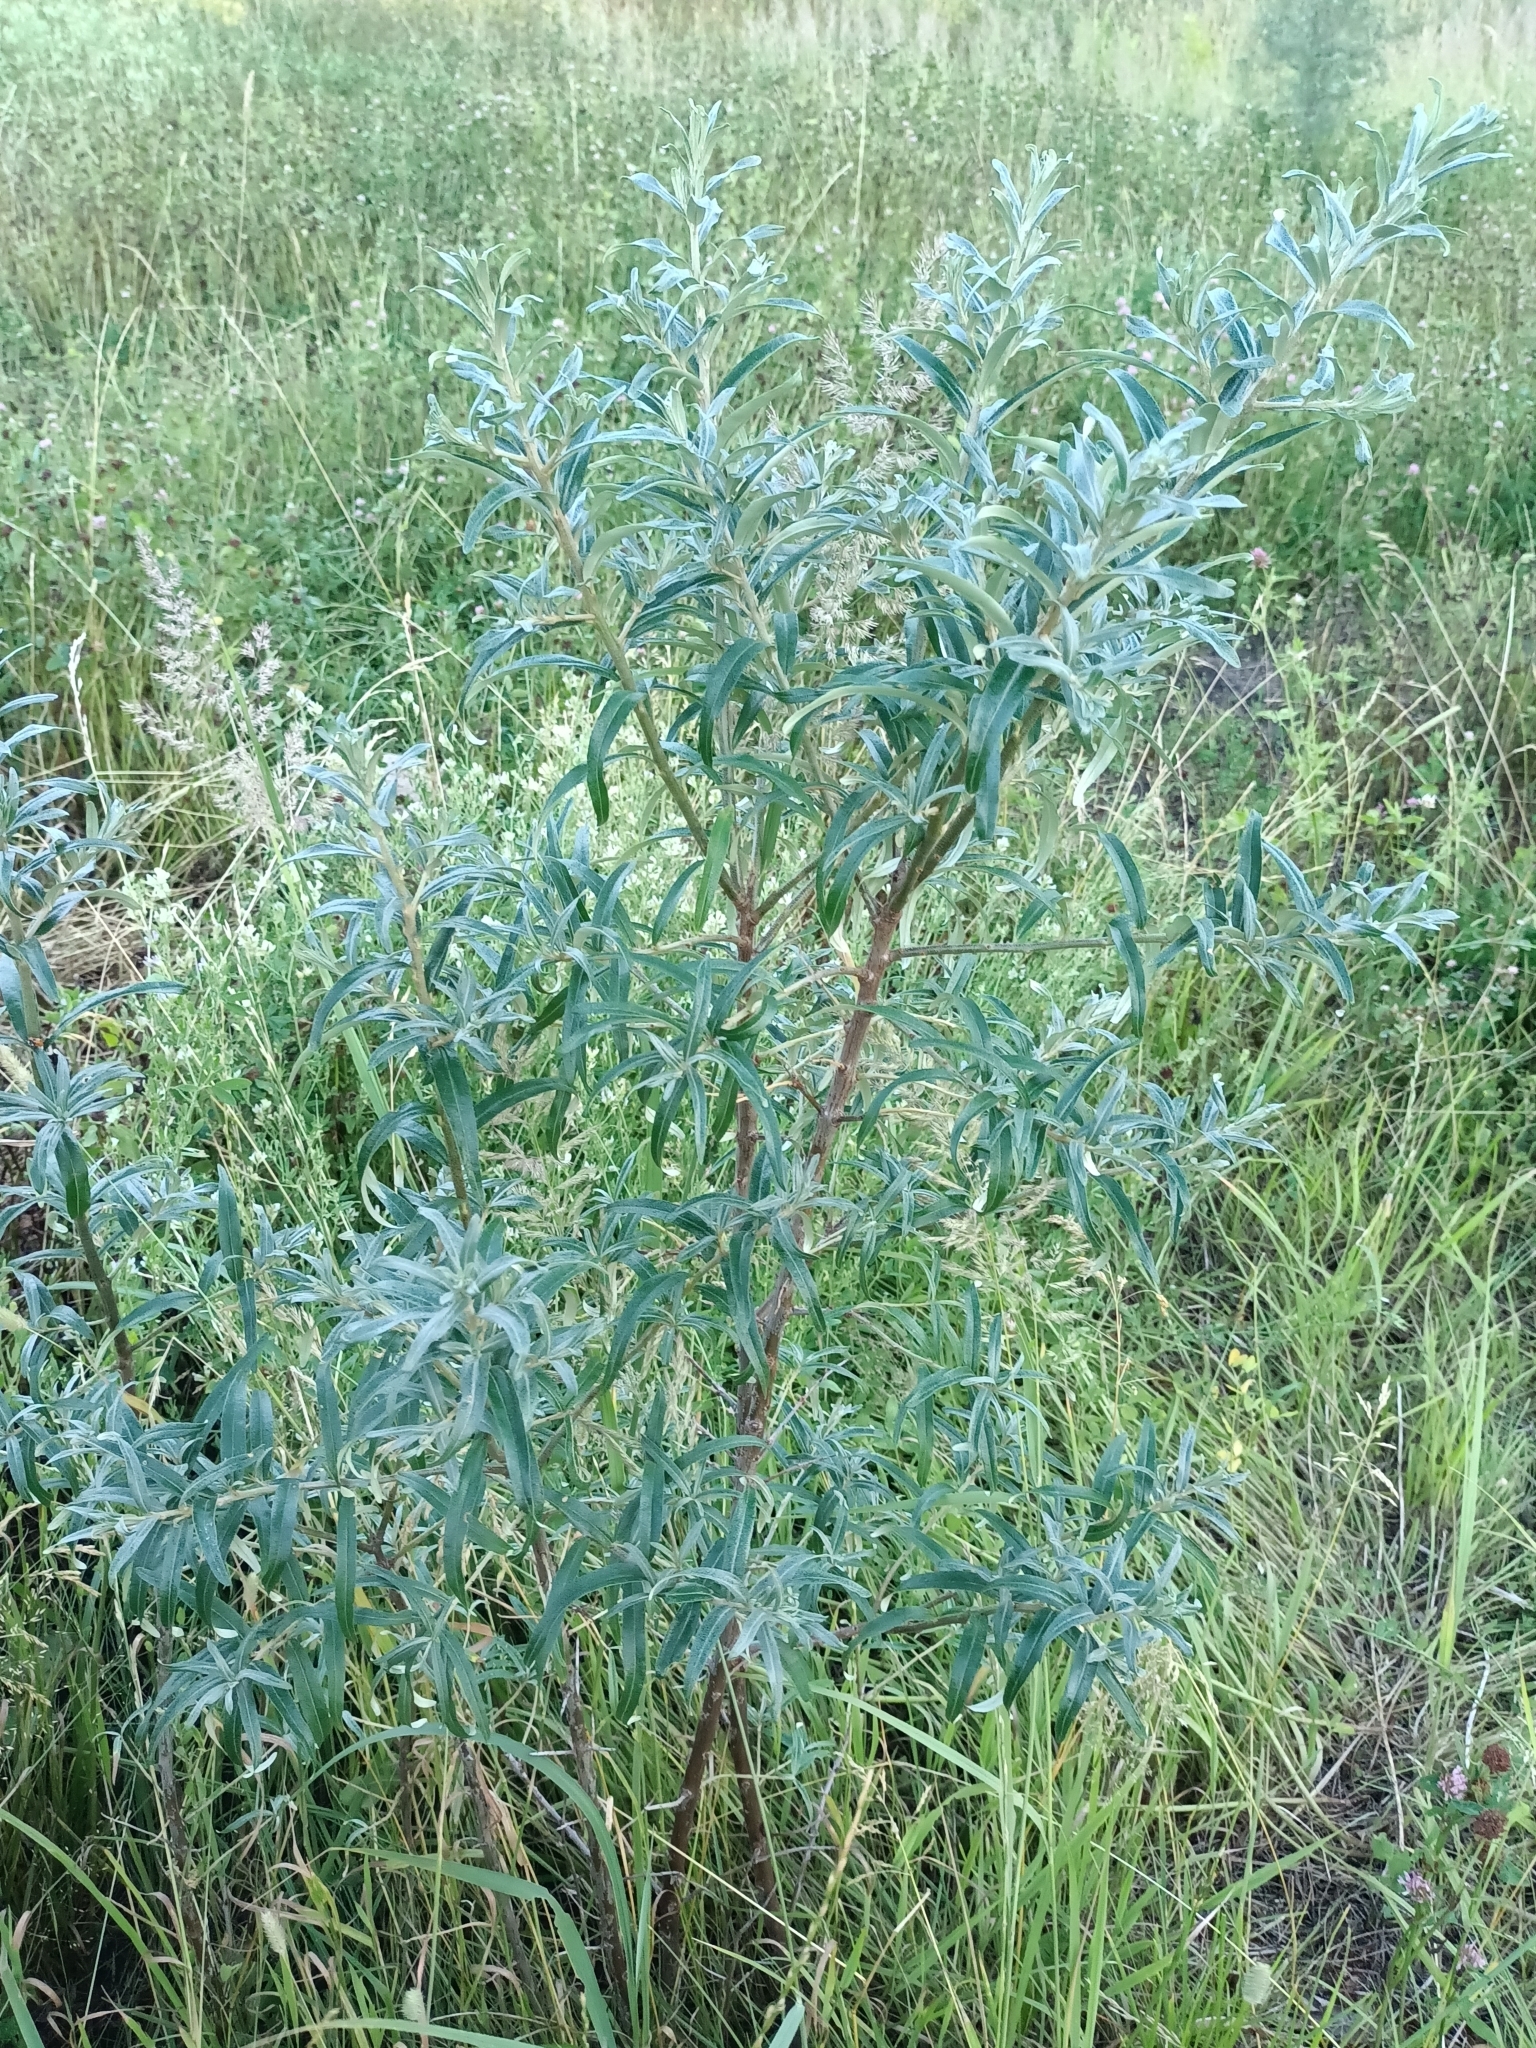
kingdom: Plantae
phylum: Tracheophyta
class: Magnoliopsida
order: Rosales
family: Elaeagnaceae
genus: Hippophae
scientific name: Hippophae rhamnoides
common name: Sea-buckthorn
